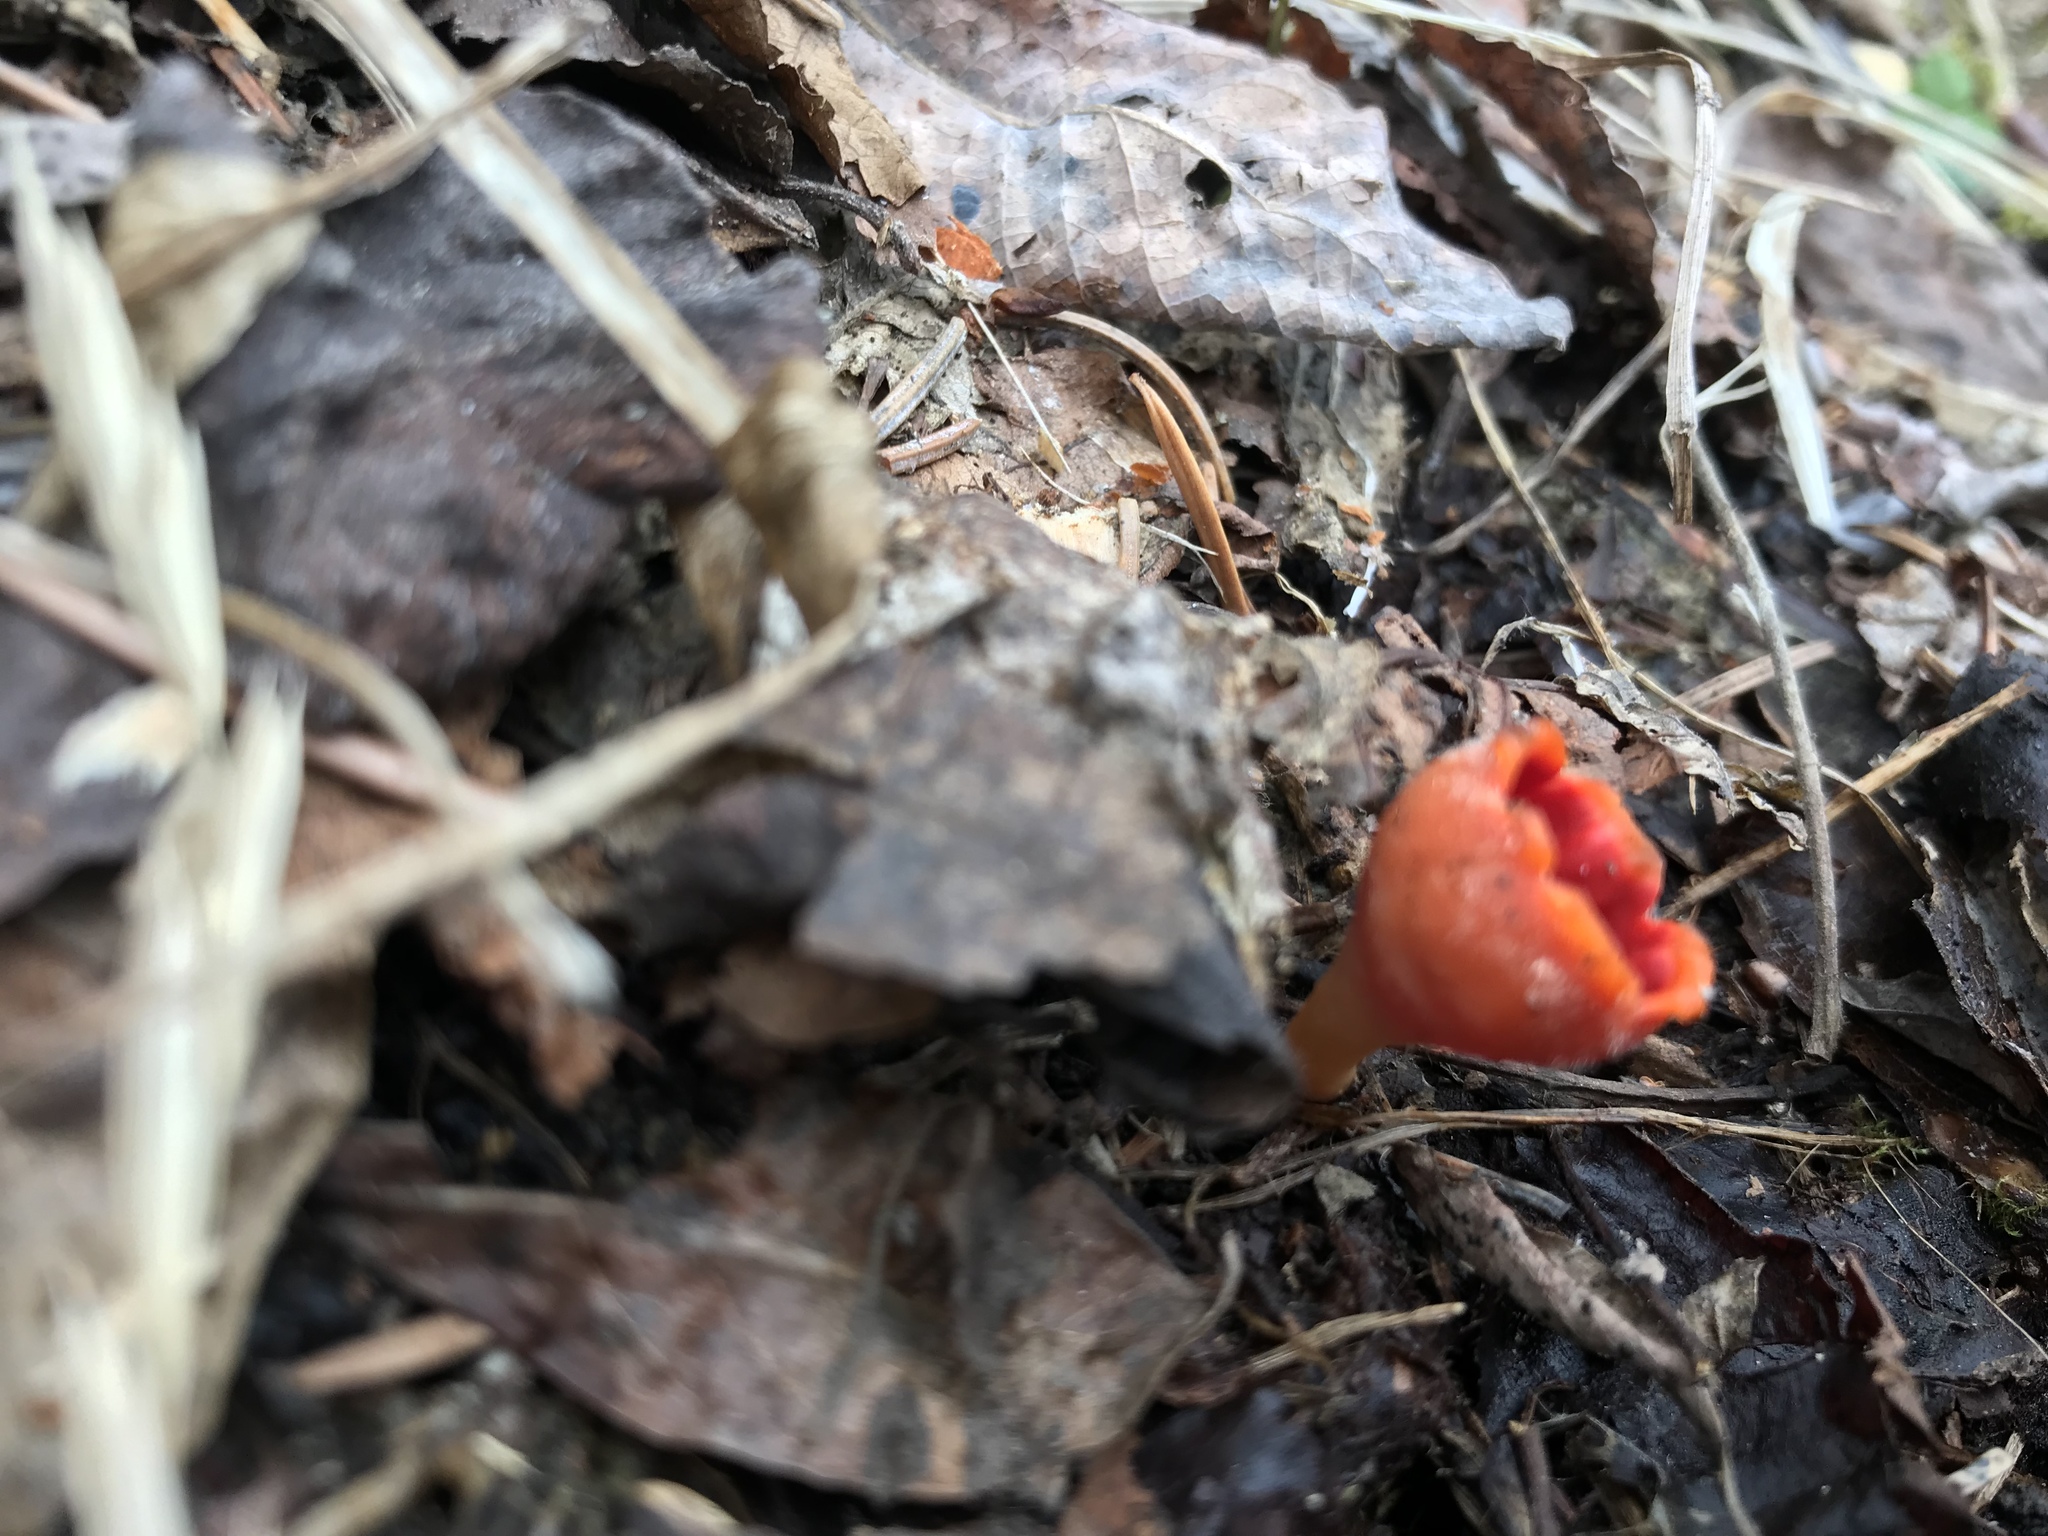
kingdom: Fungi
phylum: Ascomycota
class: Pezizomycetes
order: Pezizales
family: Sarcoscyphaceae
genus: Microstoma
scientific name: Microstoma protractum
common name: Rosy goblet
